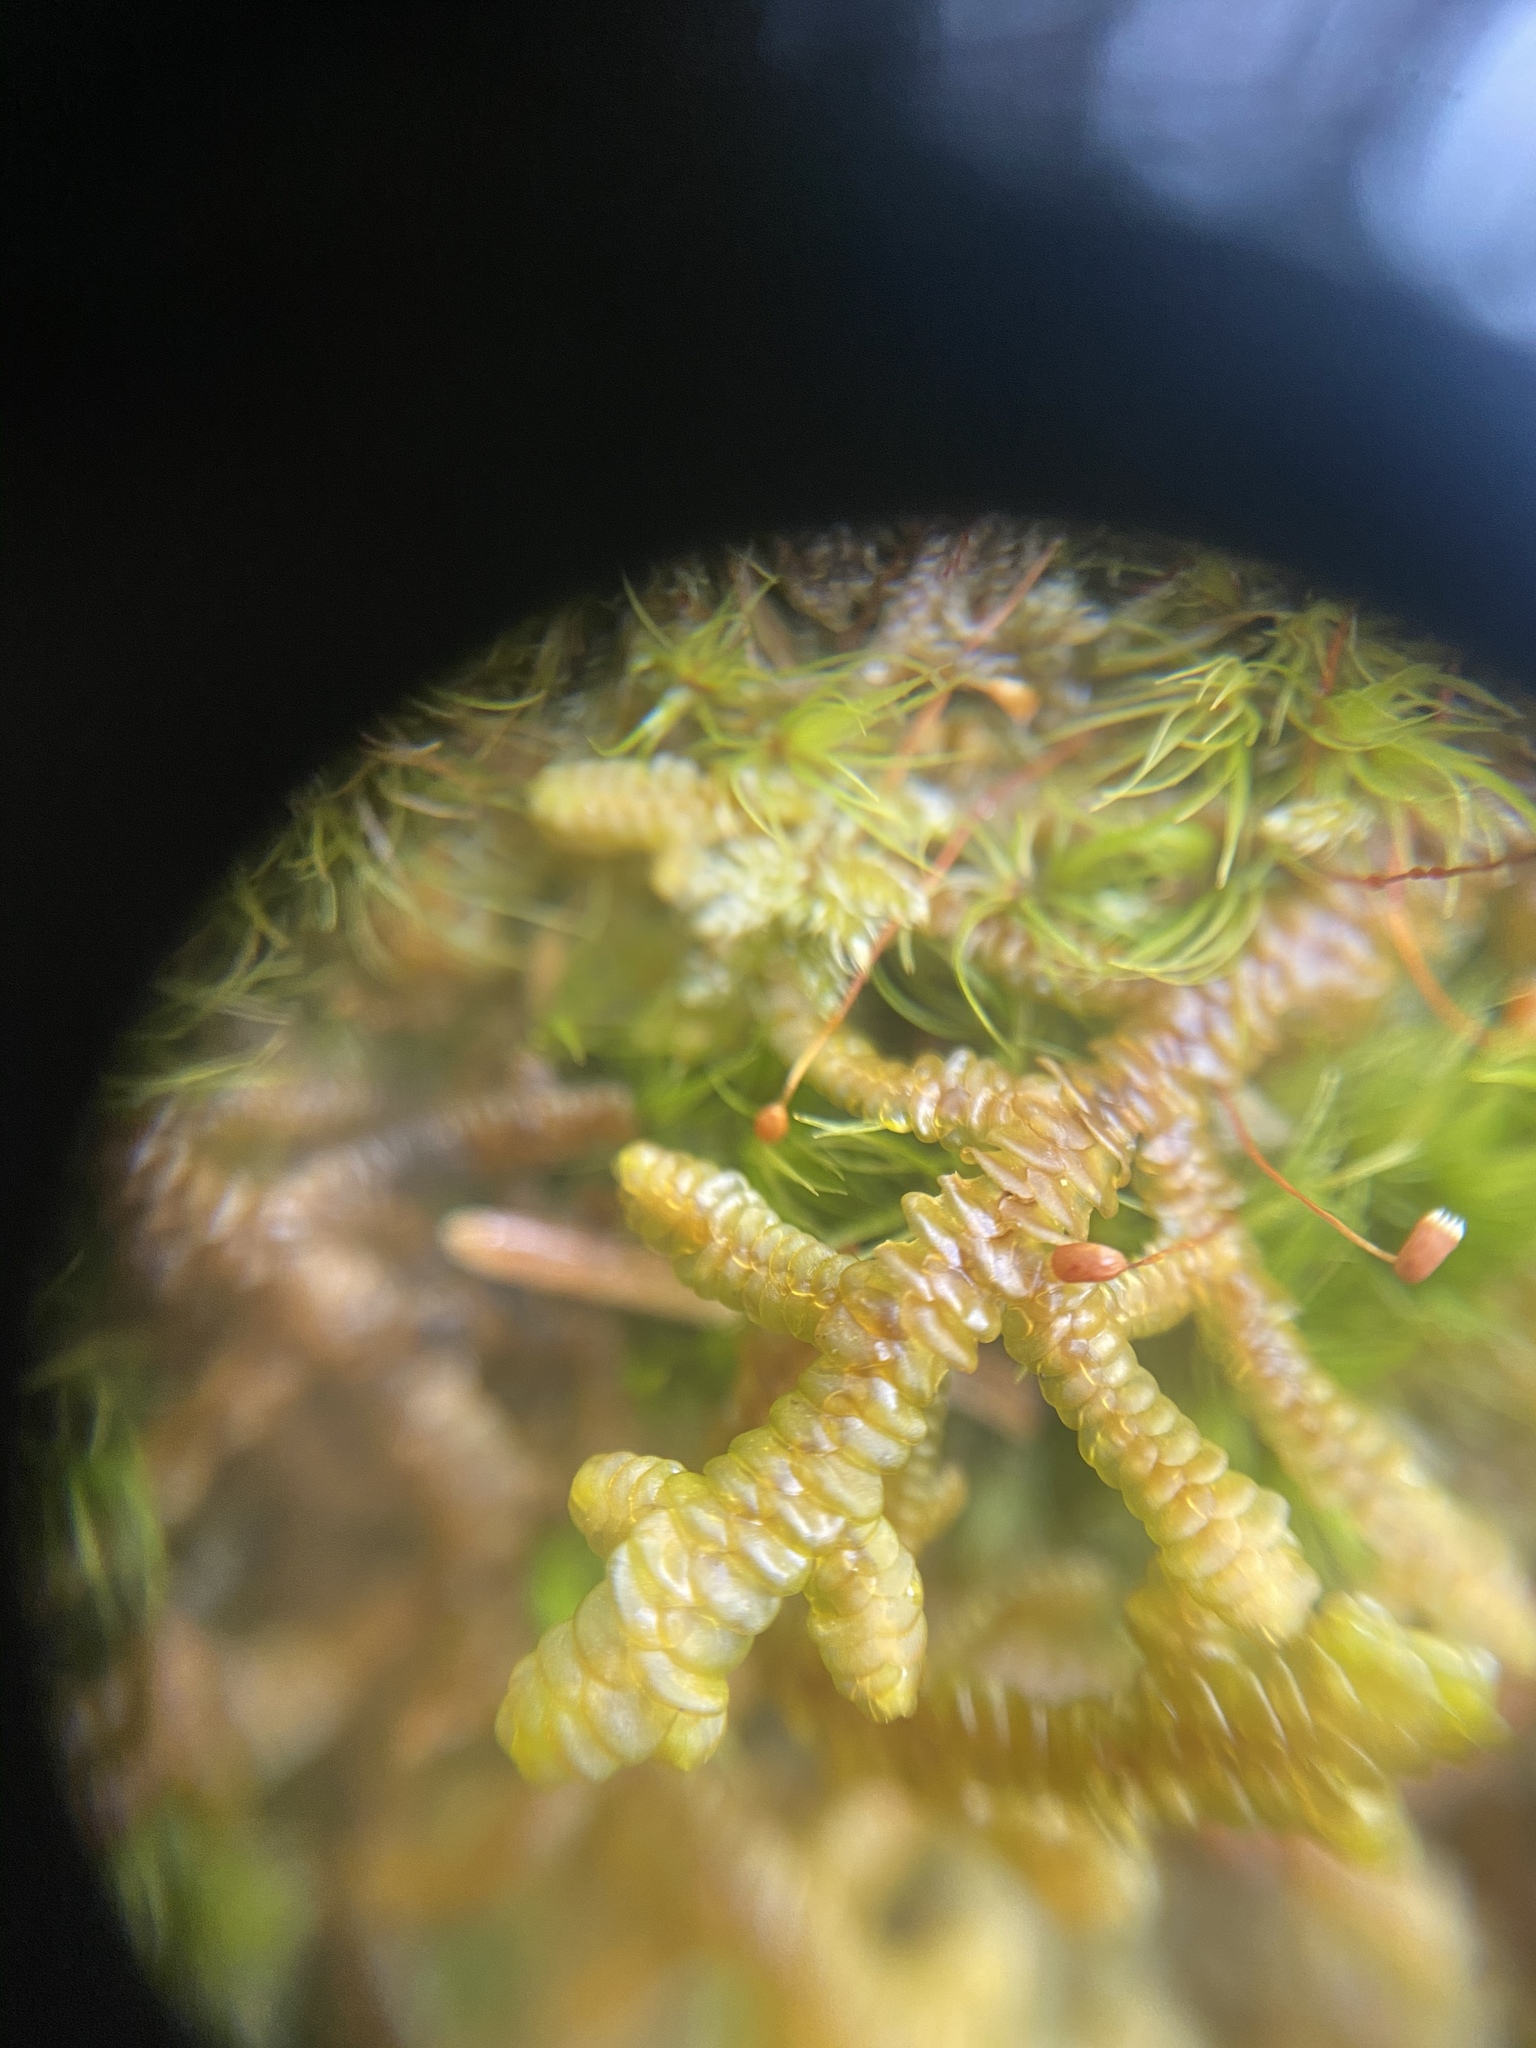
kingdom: Plantae
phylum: Marchantiophyta
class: Jungermanniopsida
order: Porellales
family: Porellaceae
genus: Porella
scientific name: Porella navicularis
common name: Tree ruffle liverwort
